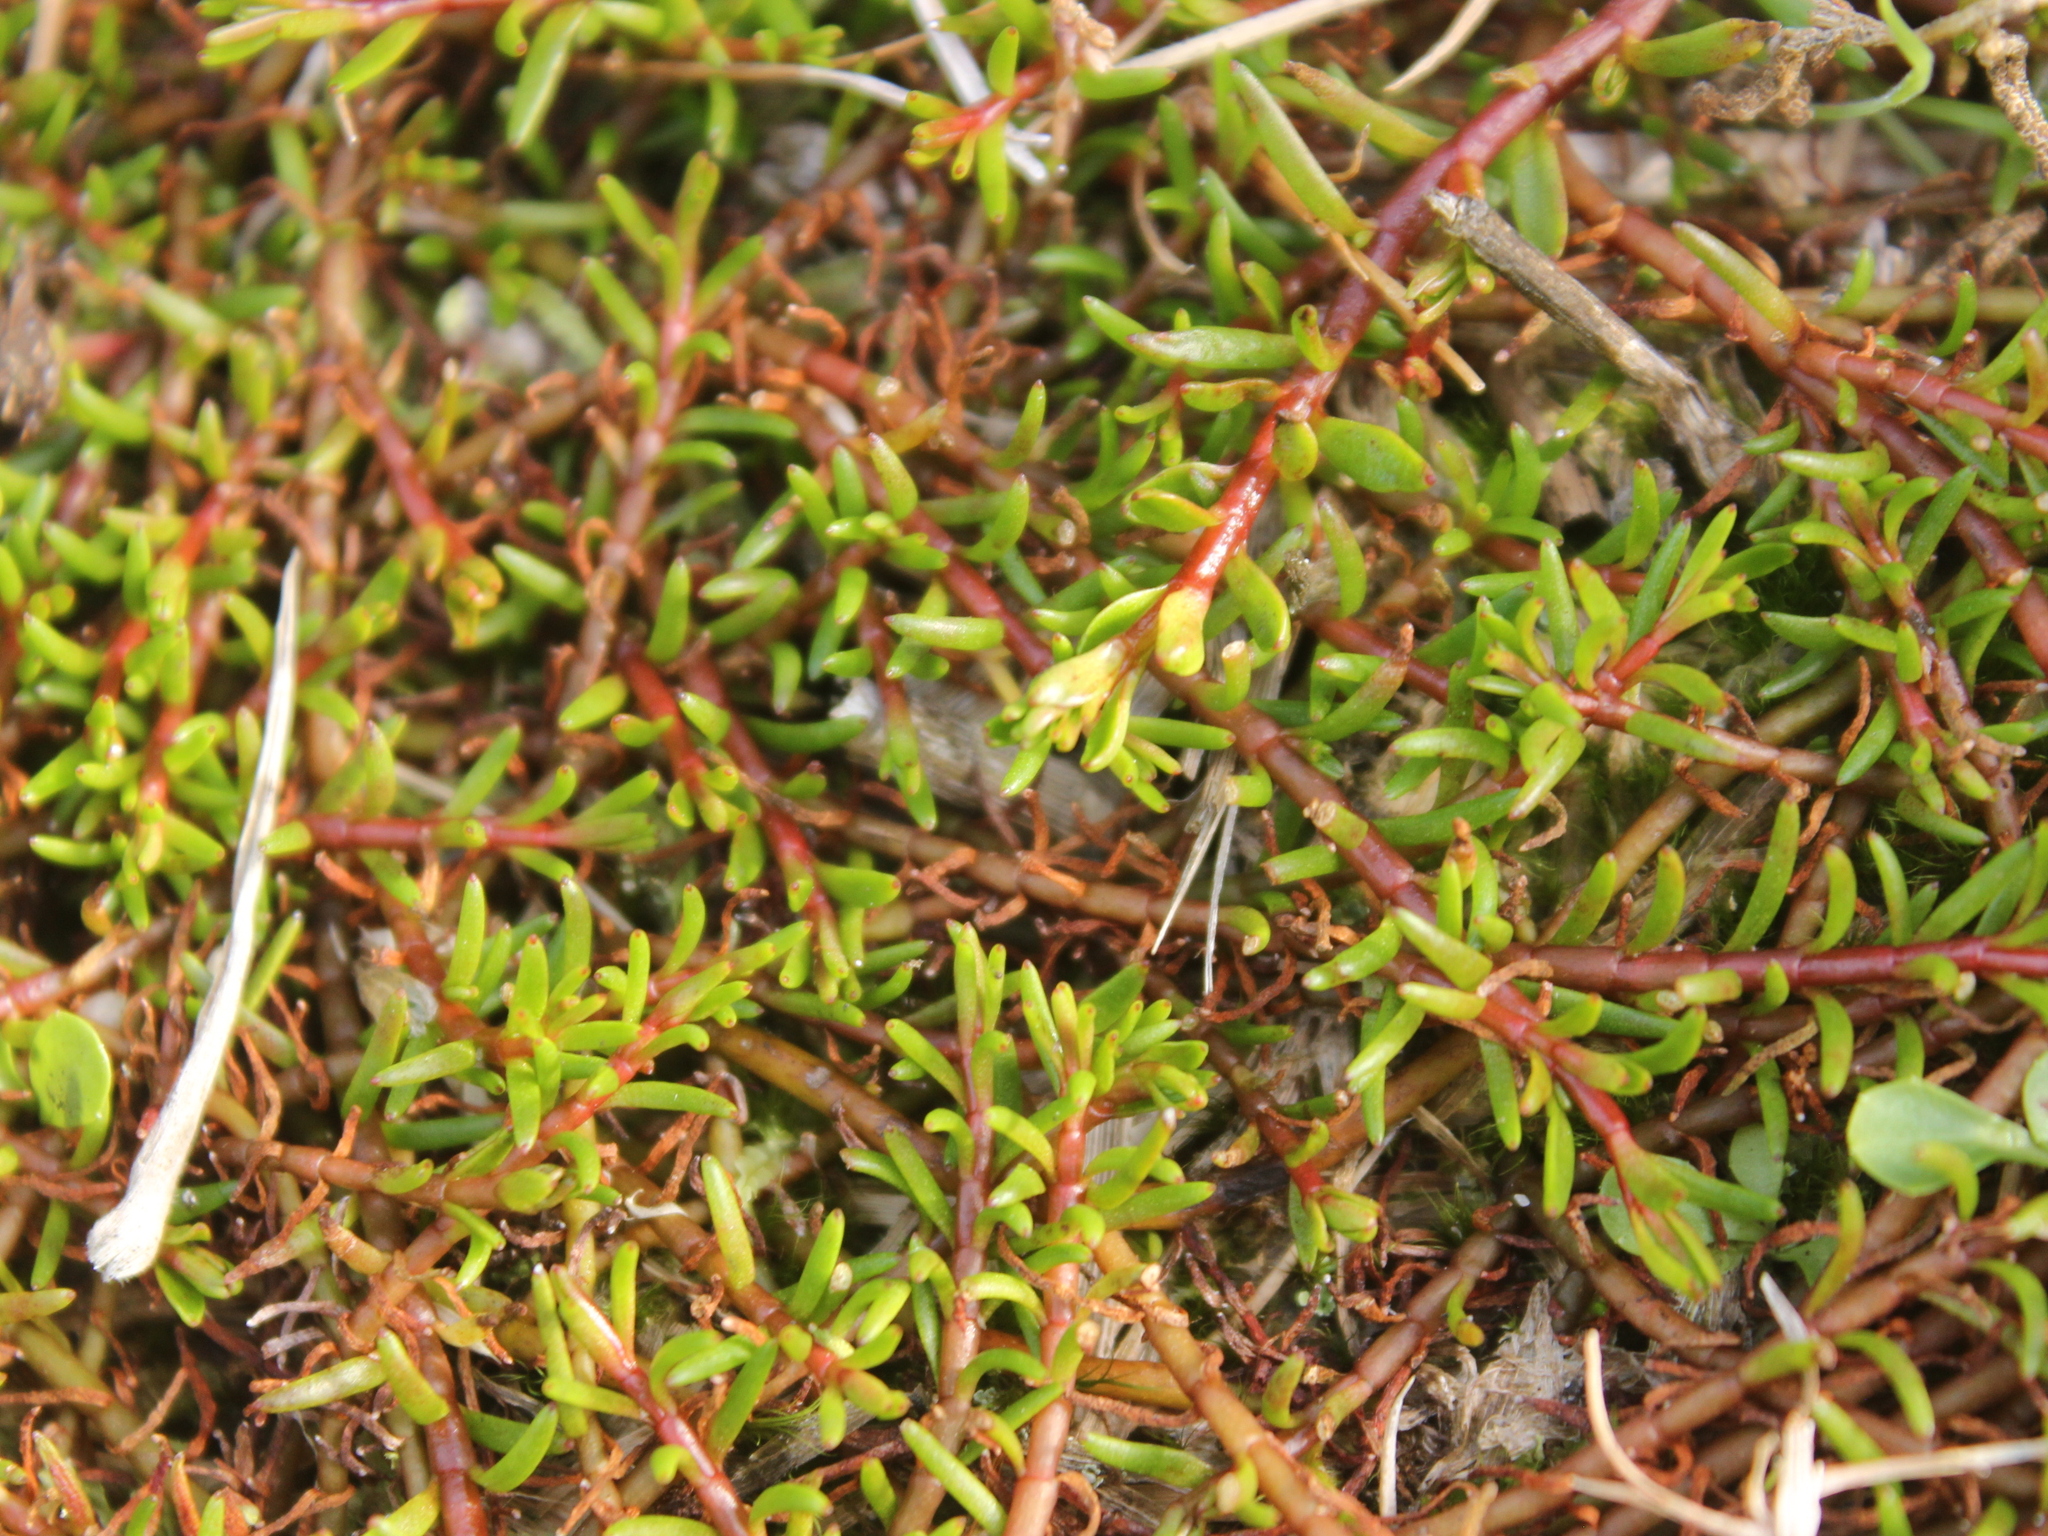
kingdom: Plantae
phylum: Tracheophyta
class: Magnoliopsida
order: Saxifragales
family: Haloragaceae
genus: Myriophyllum
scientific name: Myriophyllum pedunculatum
